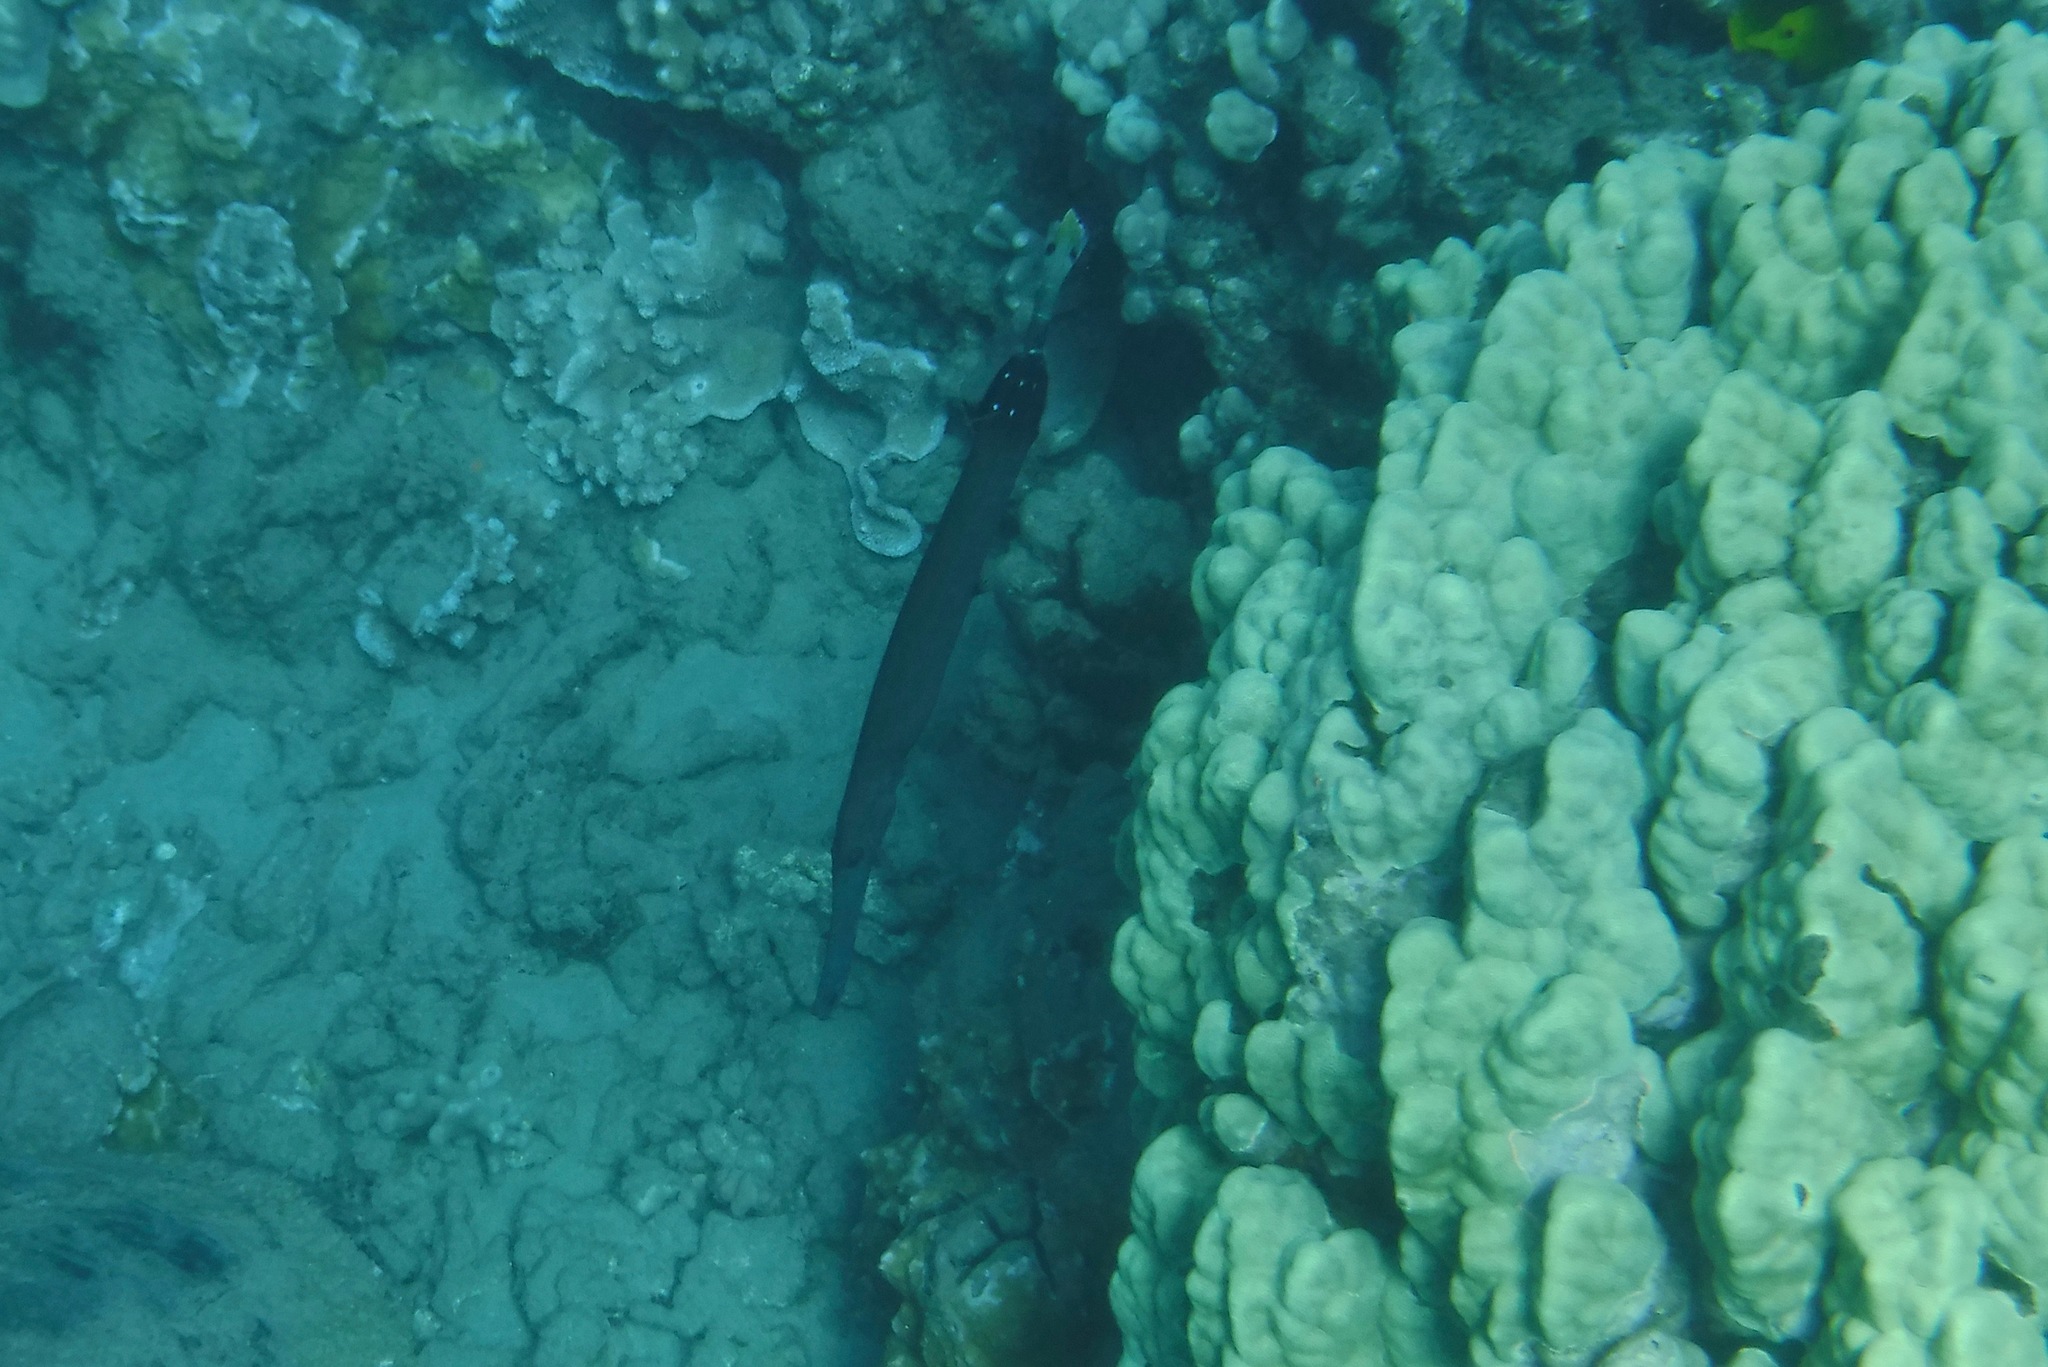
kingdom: Animalia
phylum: Chordata
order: Syngnathiformes
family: Aulostomidae
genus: Aulostomus
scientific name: Aulostomus chinensis
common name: Chinese trumpetfish
